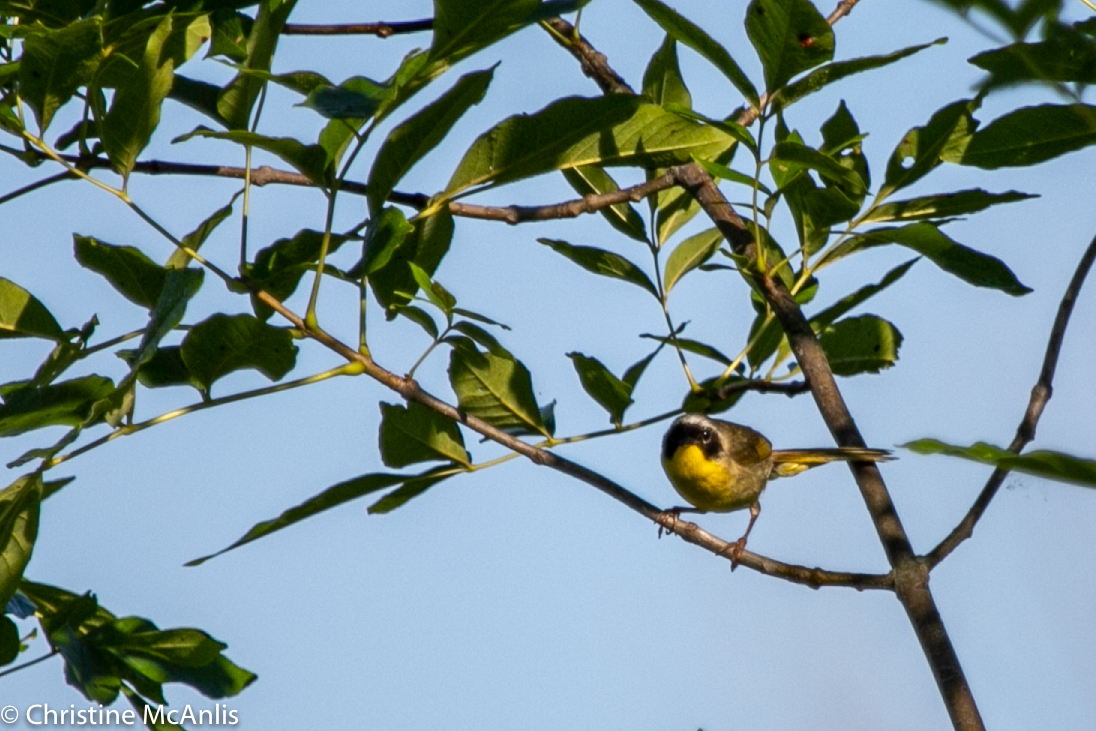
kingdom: Animalia
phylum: Chordata
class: Aves
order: Passeriformes
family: Parulidae
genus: Geothlypis
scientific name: Geothlypis trichas
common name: Common yellowthroat
